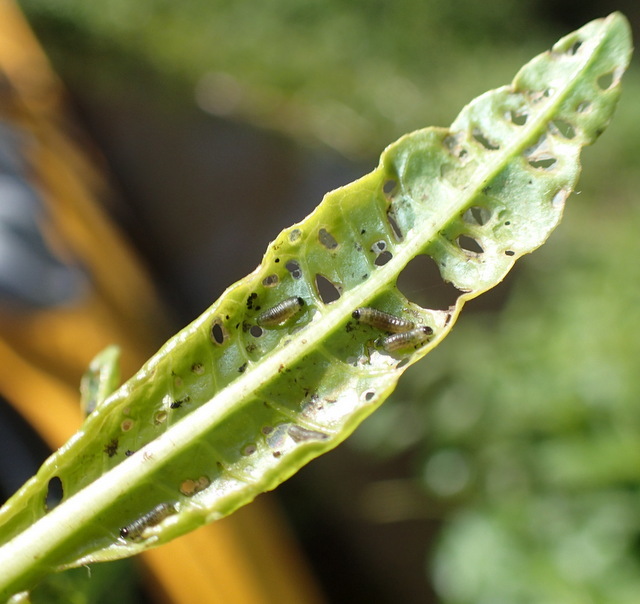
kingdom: Animalia
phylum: Arthropoda
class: Insecta
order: Coleoptera
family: Chrysomelidae
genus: Agasicles
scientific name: Agasicles hygrophila
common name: Alligatorweed flea beetle
